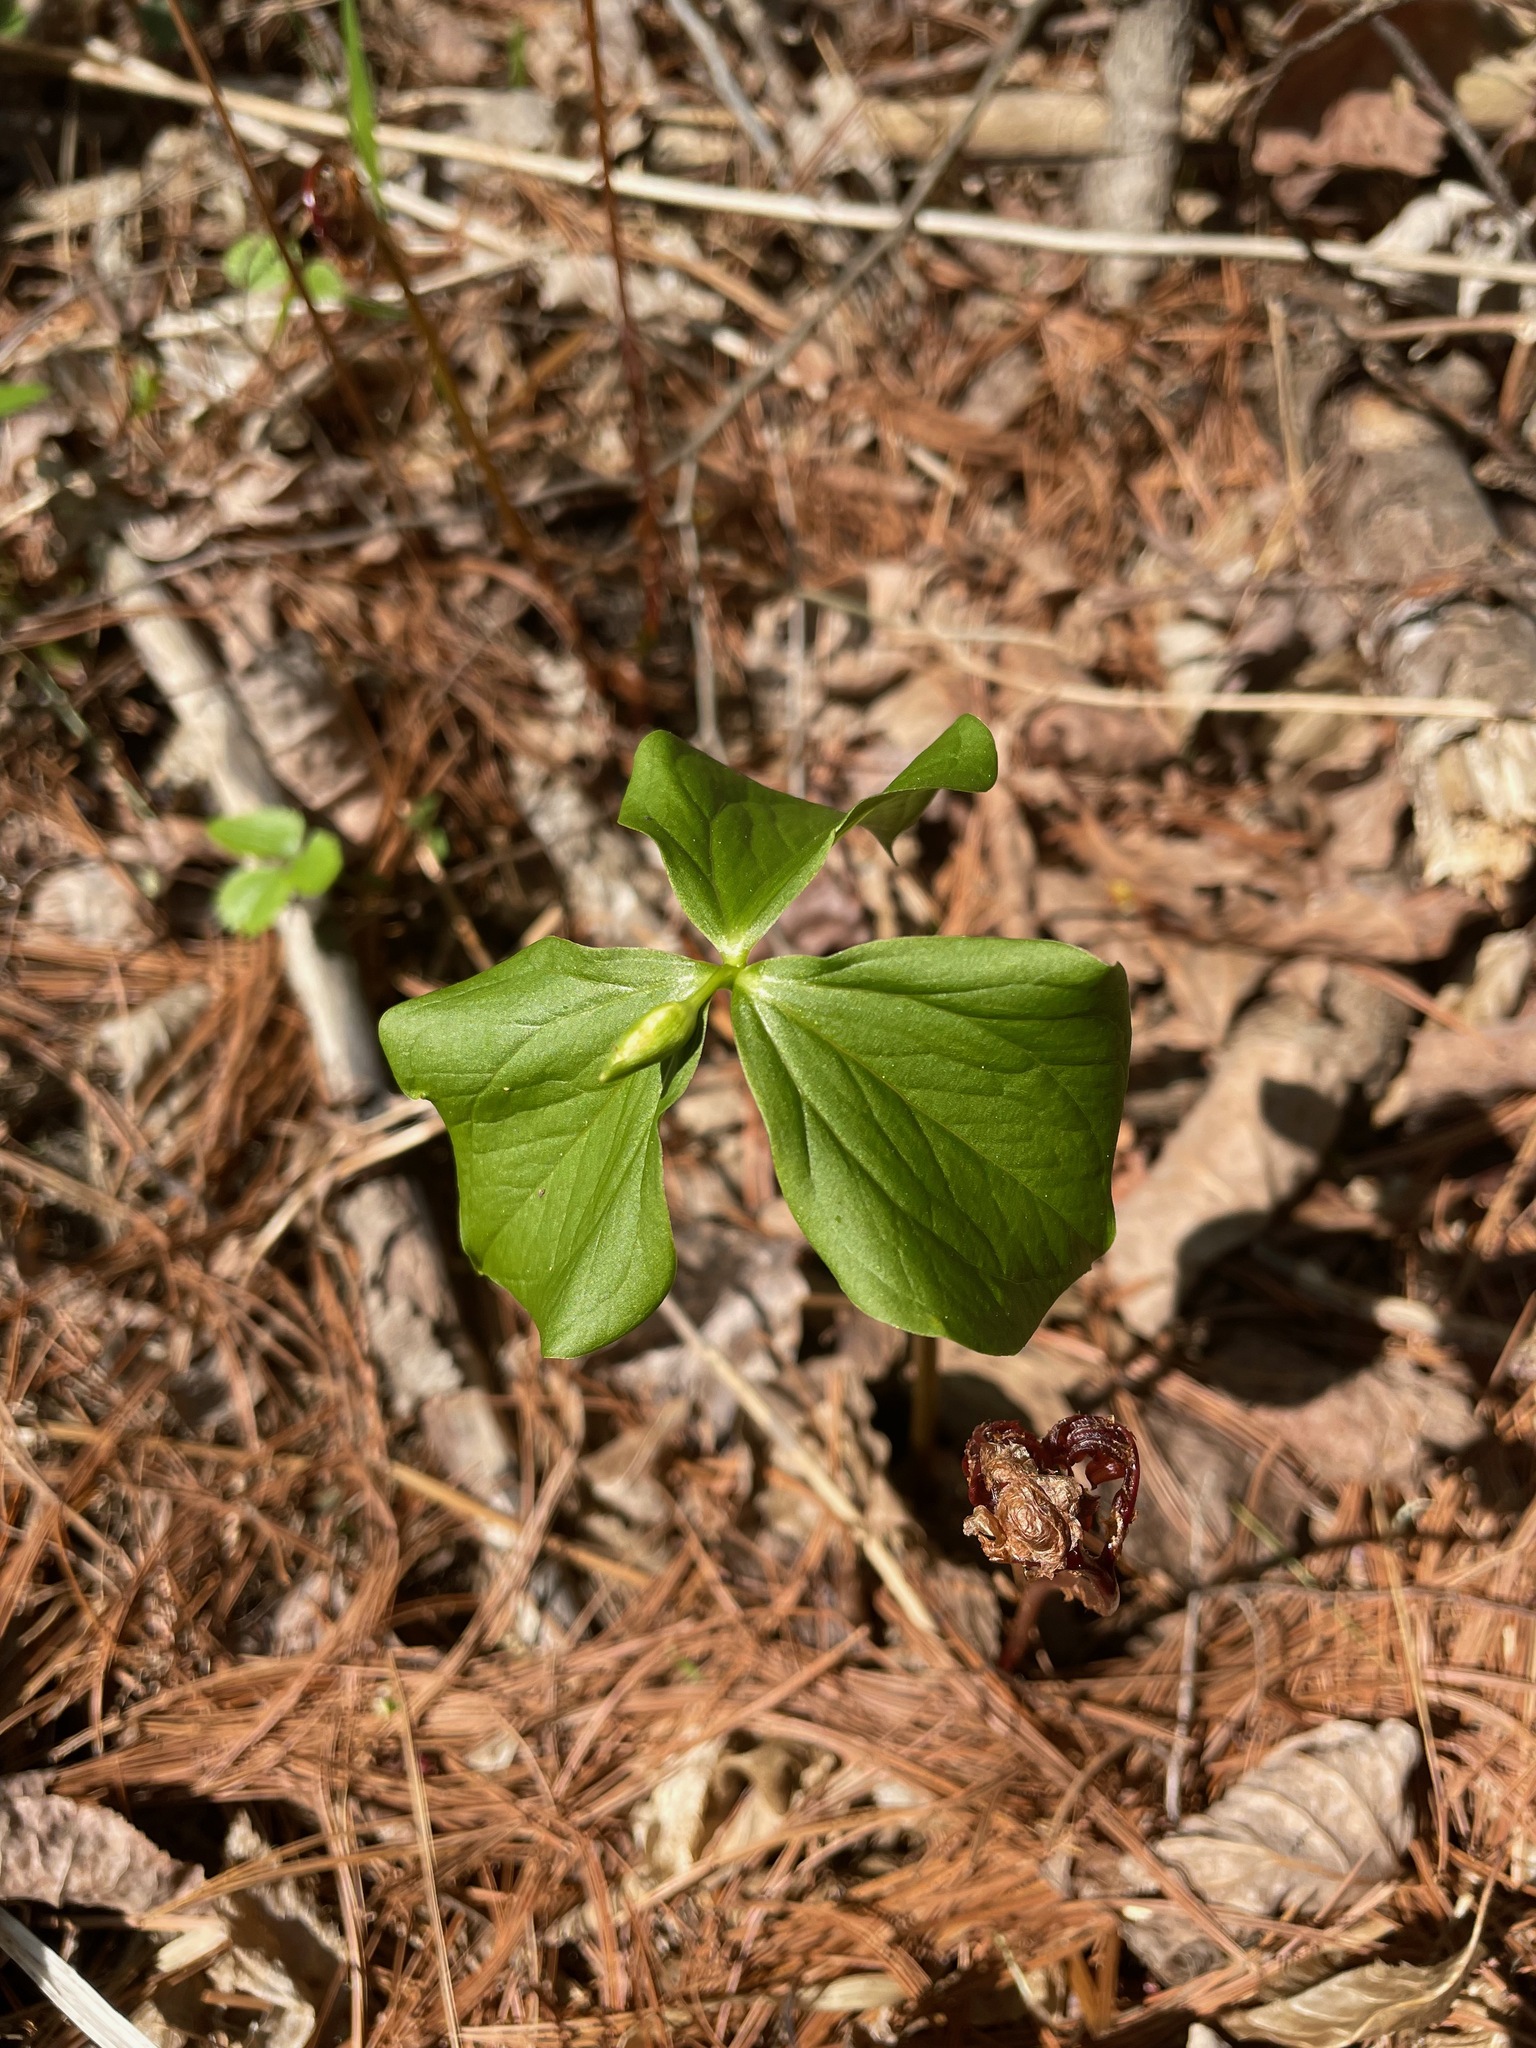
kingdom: Plantae
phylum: Tracheophyta
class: Liliopsida
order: Liliales
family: Melanthiaceae
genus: Trillium
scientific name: Trillium cernuum
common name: Nodding trillium
